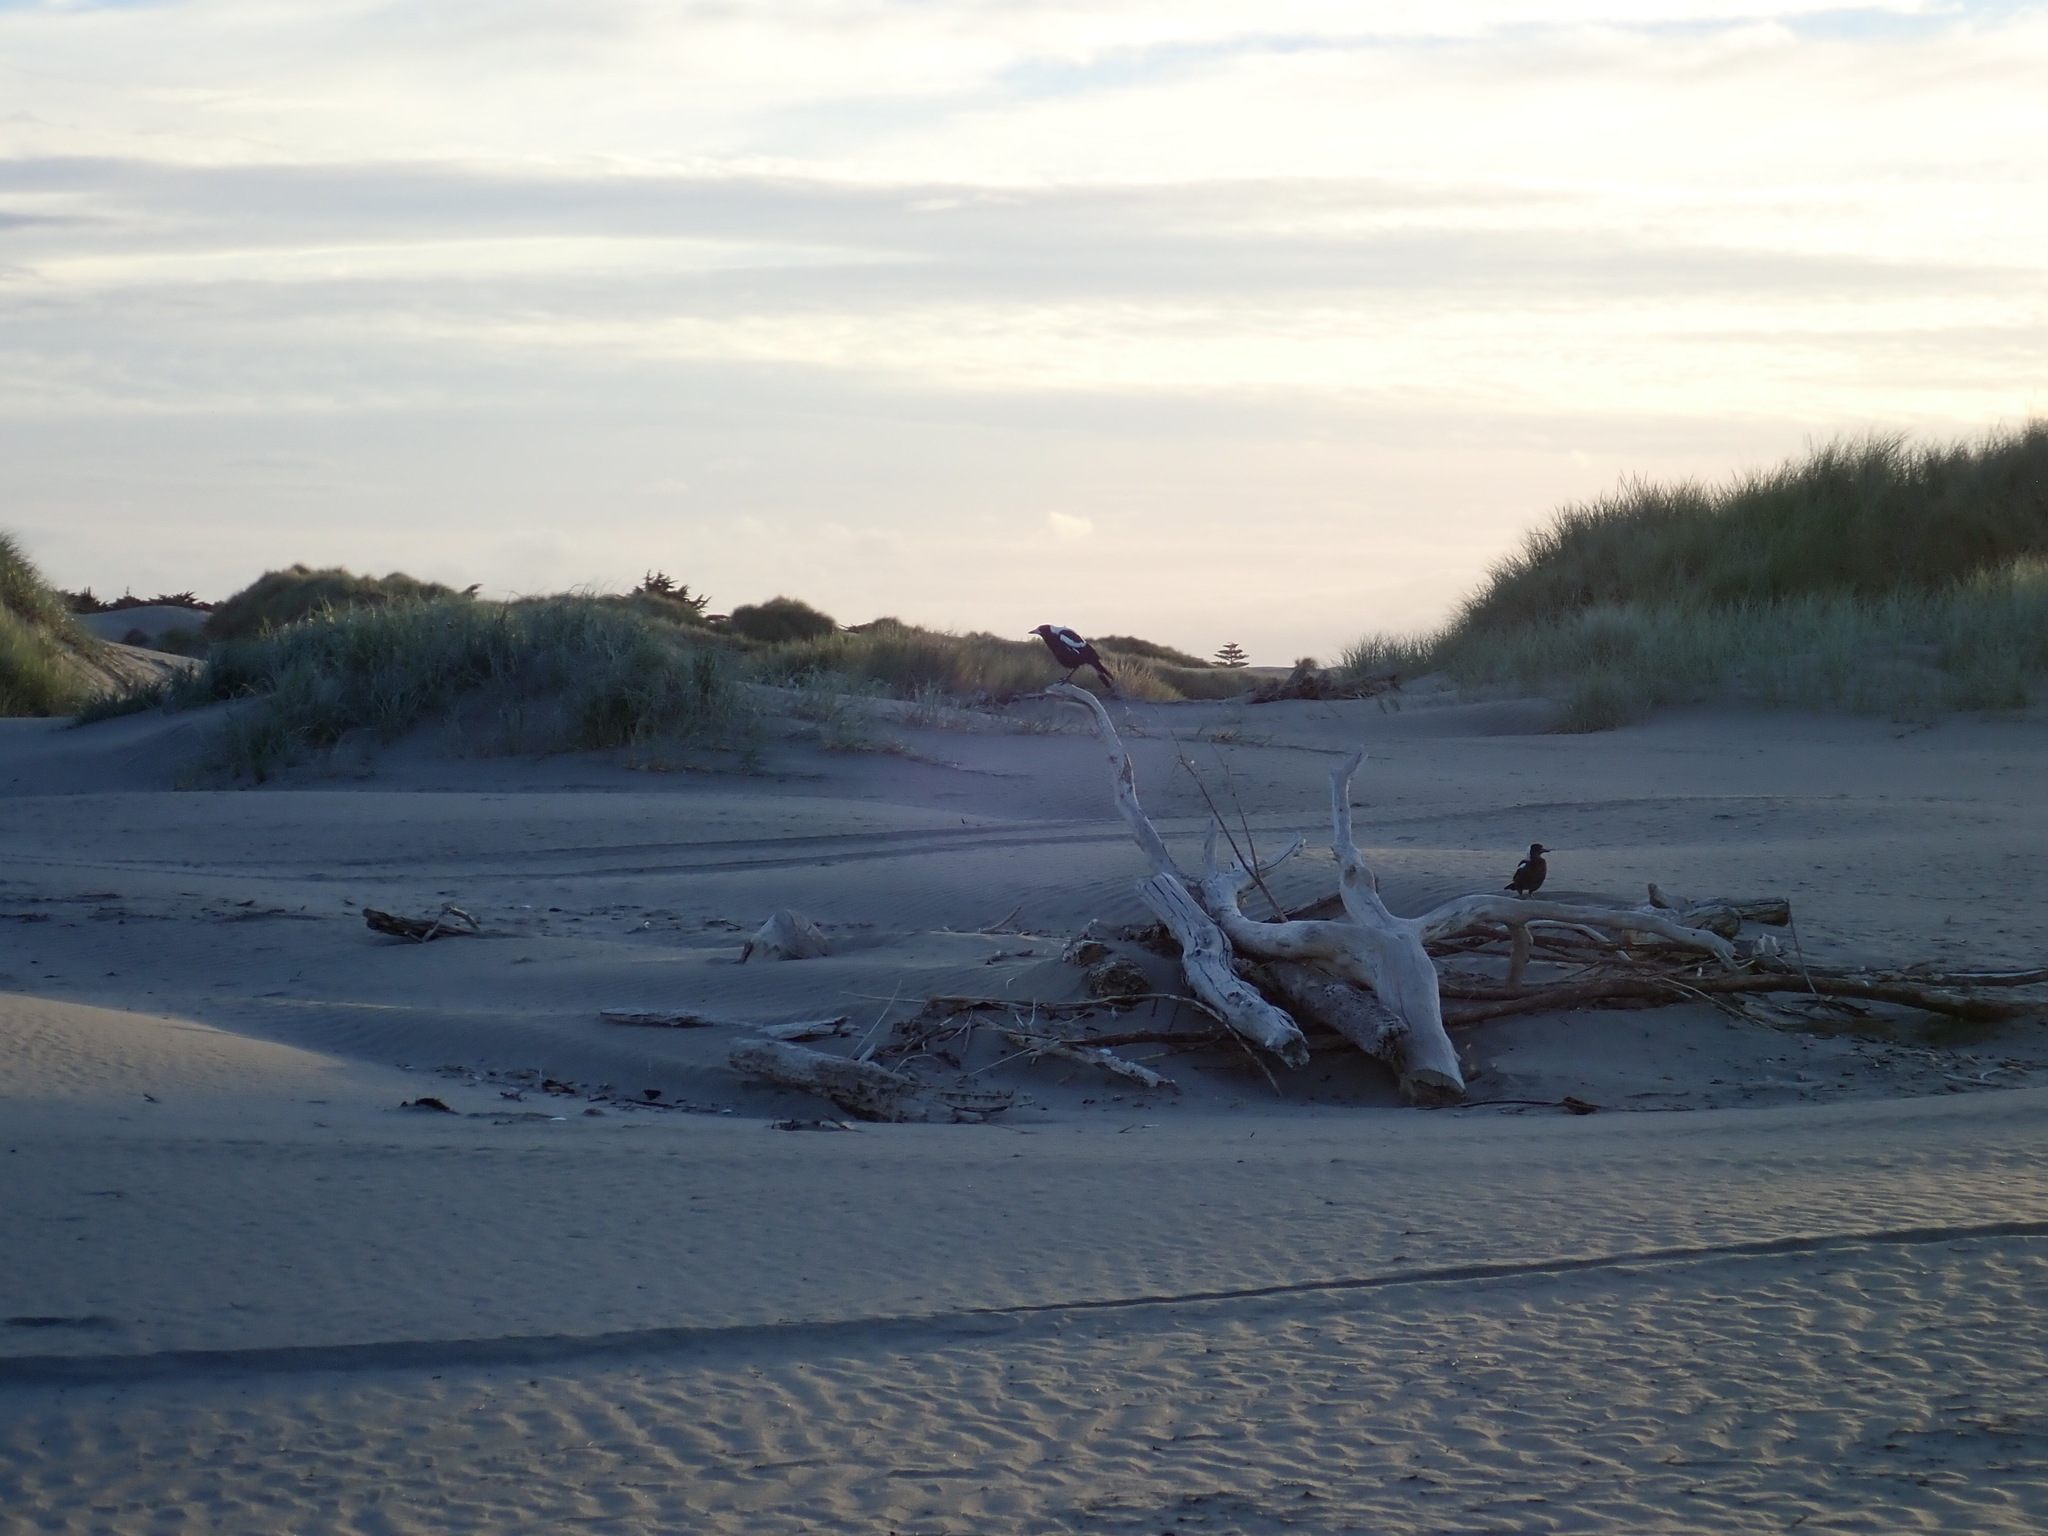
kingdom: Animalia
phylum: Chordata
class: Aves
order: Passeriformes
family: Cracticidae
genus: Gymnorhina
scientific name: Gymnorhina tibicen
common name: Australian magpie
